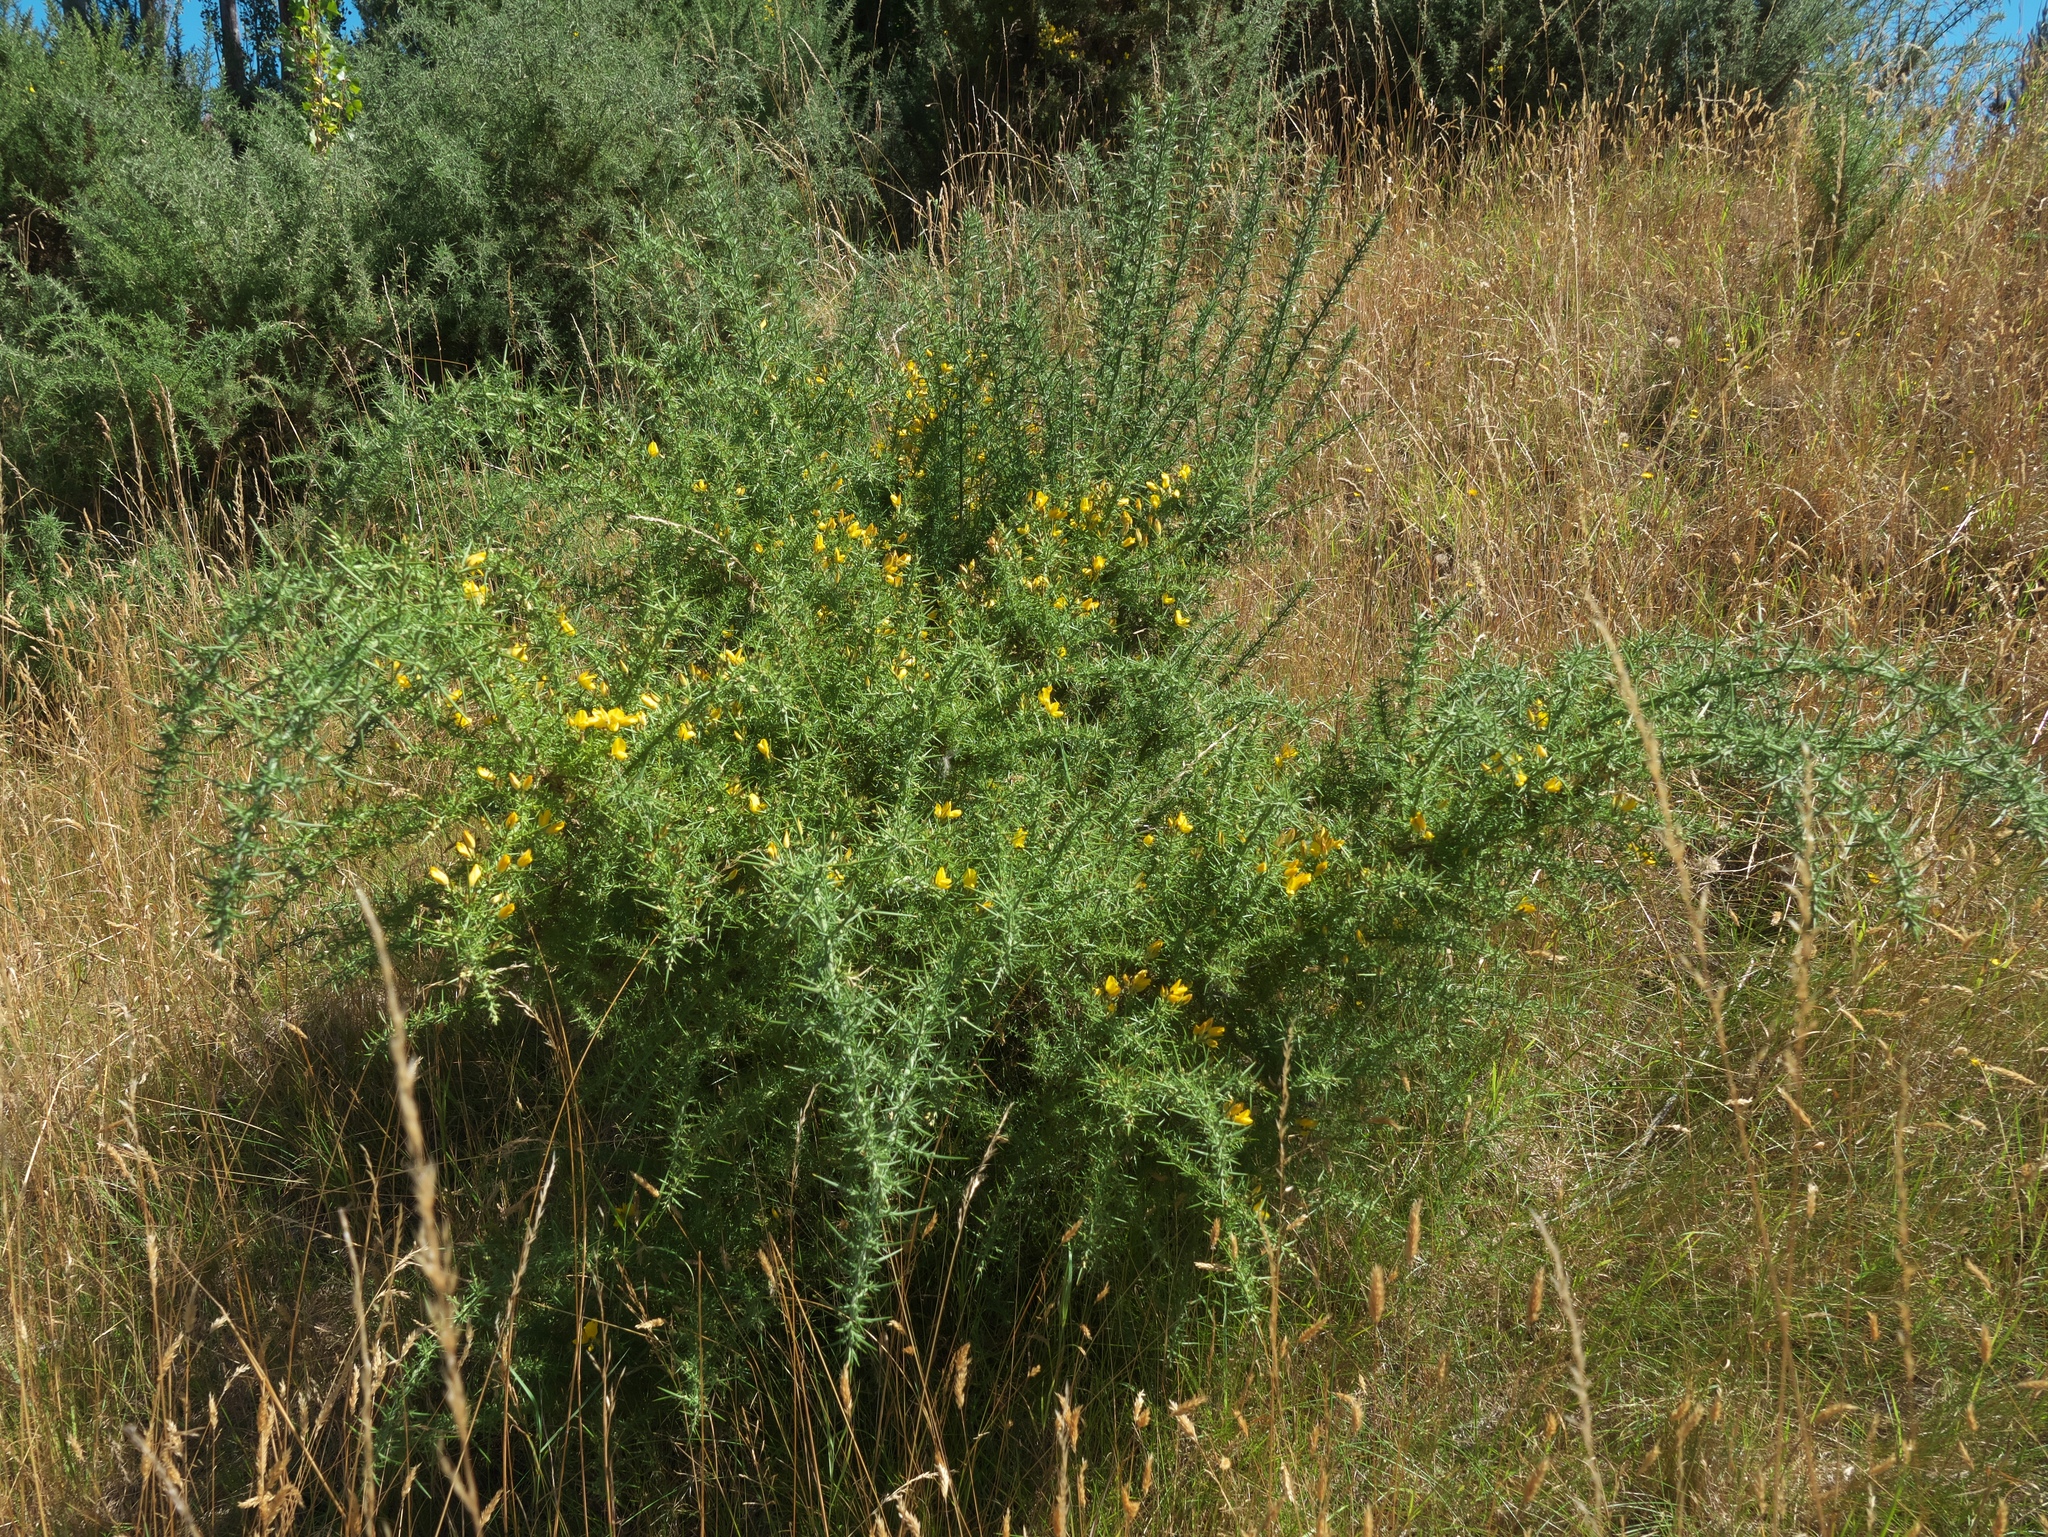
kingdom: Plantae
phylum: Tracheophyta
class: Magnoliopsida
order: Fabales
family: Fabaceae
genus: Ulex
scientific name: Ulex europaeus
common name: Common gorse
